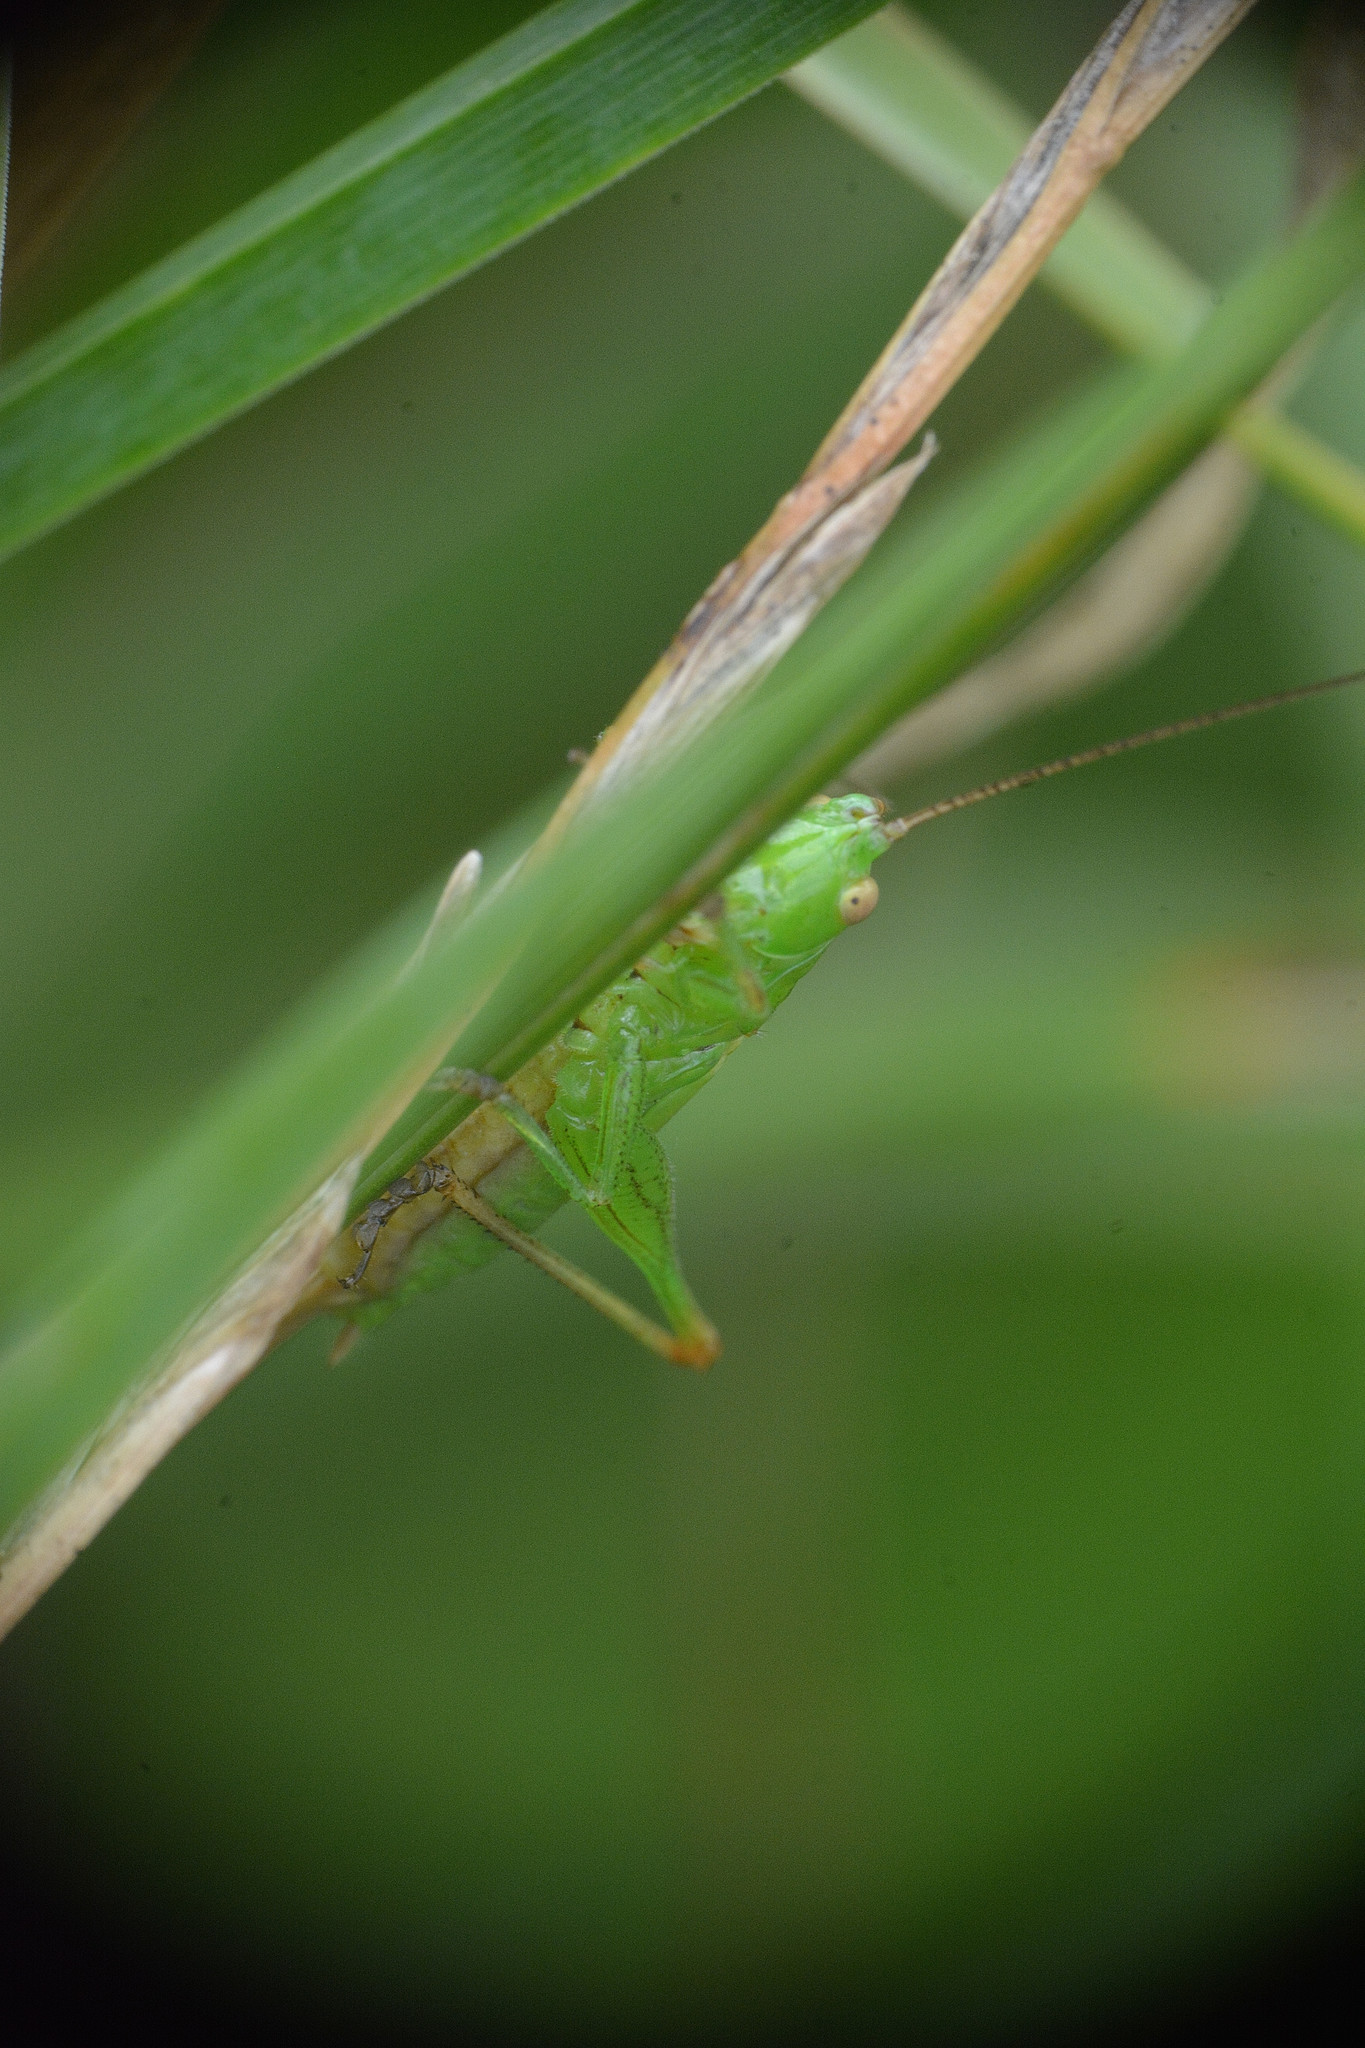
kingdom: Animalia
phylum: Arthropoda
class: Insecta
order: Orthoptera
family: Tettigoniidae
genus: Conocephalus
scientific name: Conocephalus fuscus
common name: Long-winged conehead
